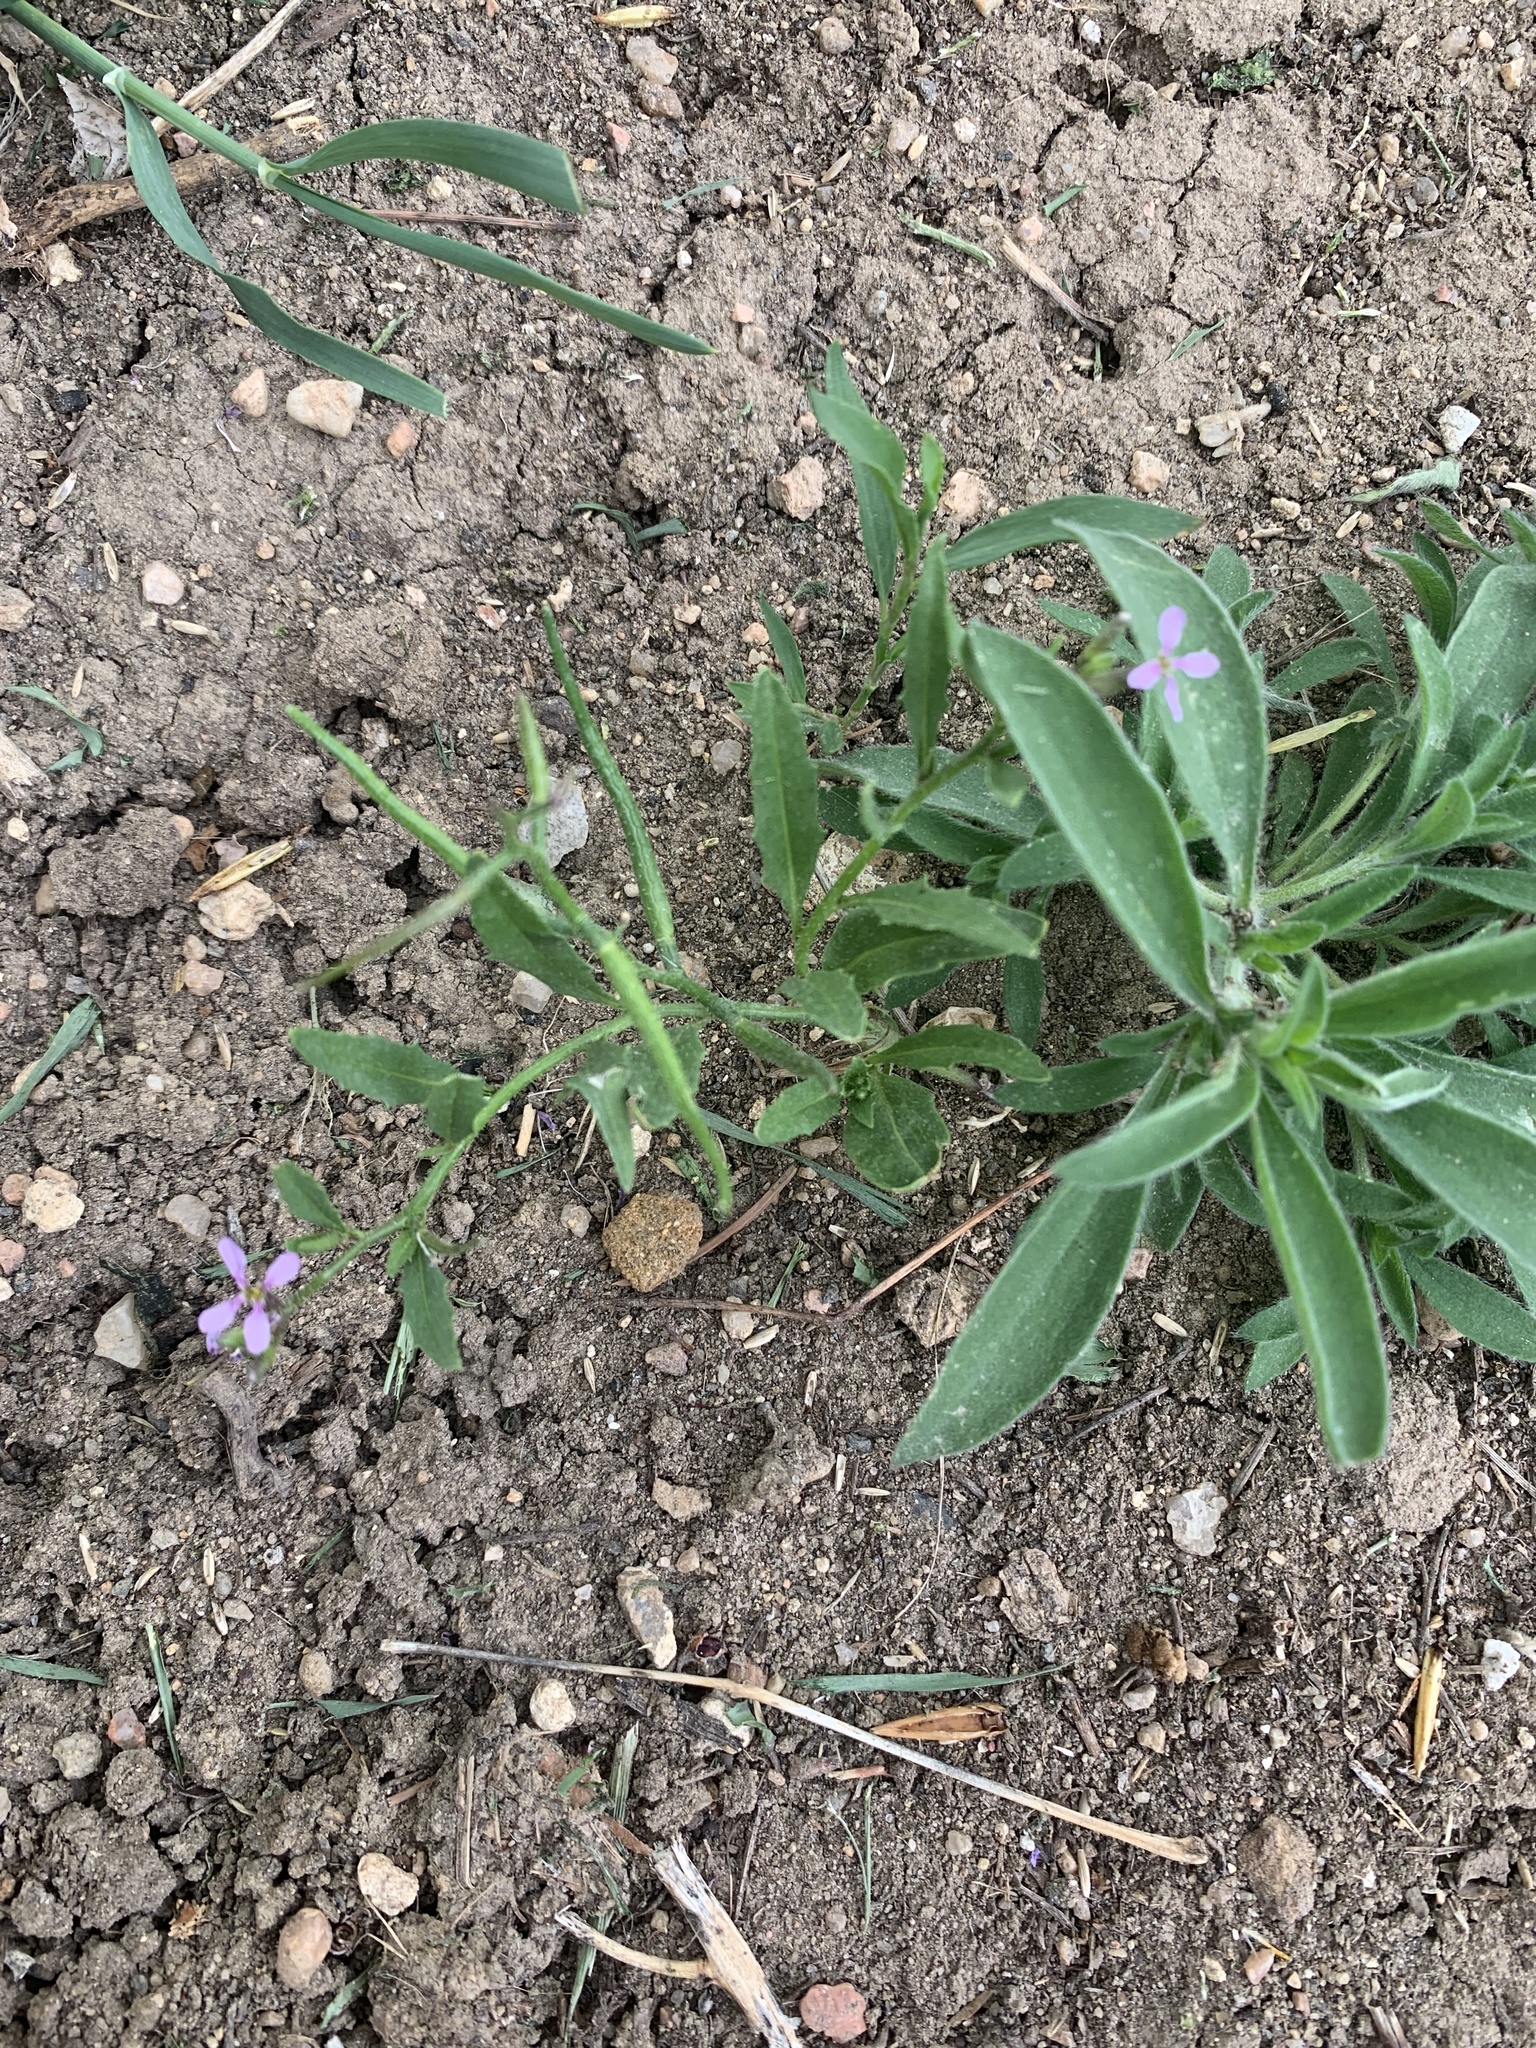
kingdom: Plantae
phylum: Tracheophyta
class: Magnoliopsida
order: Brassicales
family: Brassicaceae
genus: Chorispora
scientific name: Chorispora tenella
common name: Crossflower
